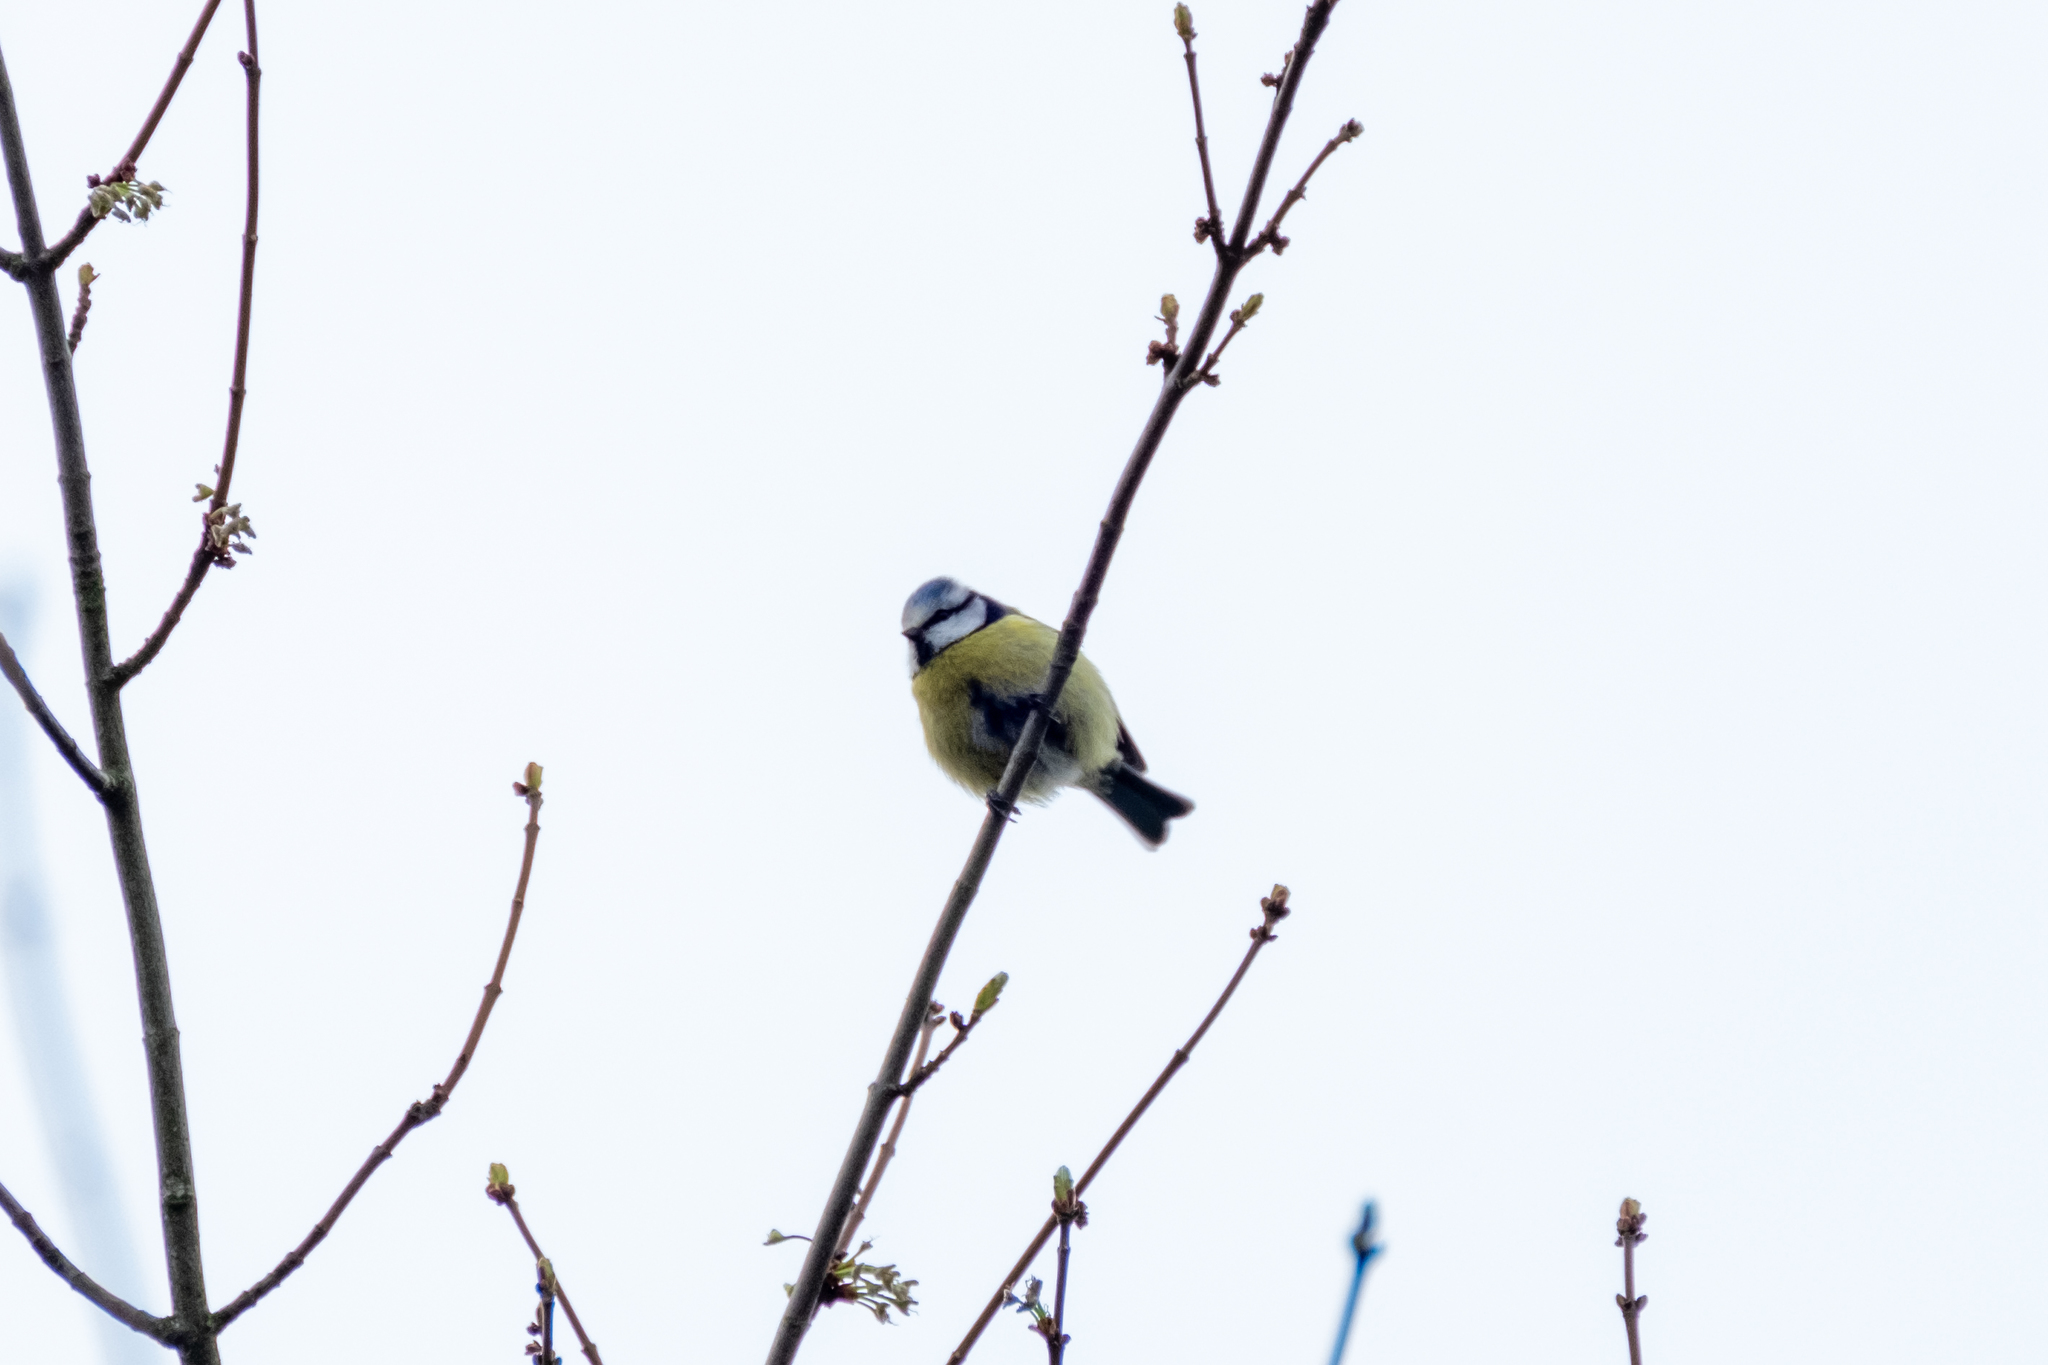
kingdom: Animalia
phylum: Chordata
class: Aves
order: Passeriformes
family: Paridae
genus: Cyanistes
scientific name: Cyanistes caeruleus
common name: Eurasian blue tit
